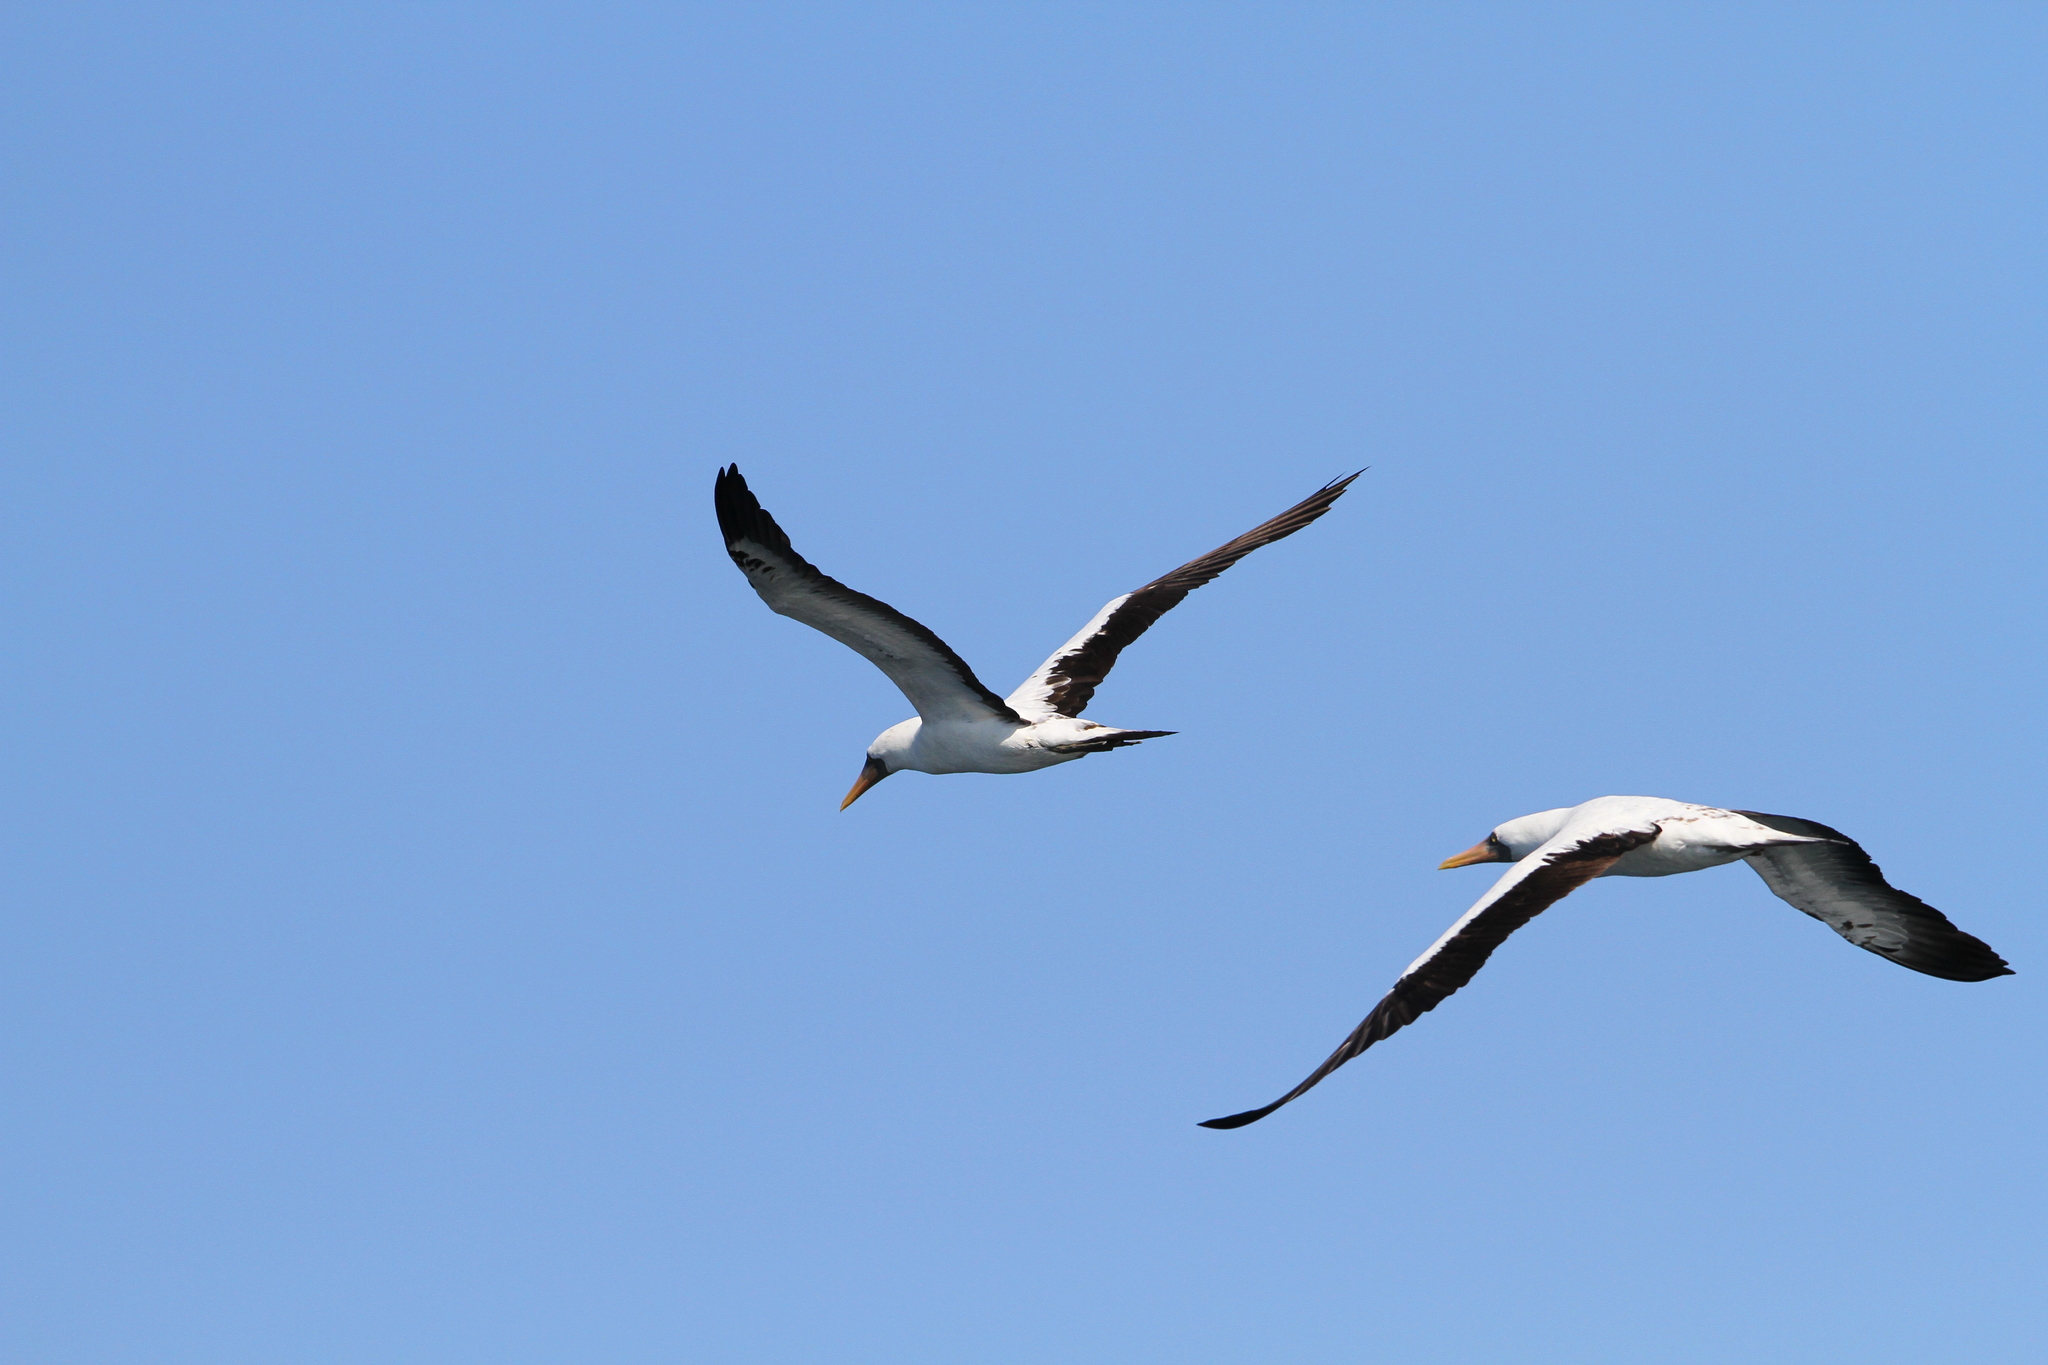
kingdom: Animalia
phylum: Chordata
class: Aves
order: Suliformes
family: Sulidae
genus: Sula
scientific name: Sula granti
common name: Nazca booby
